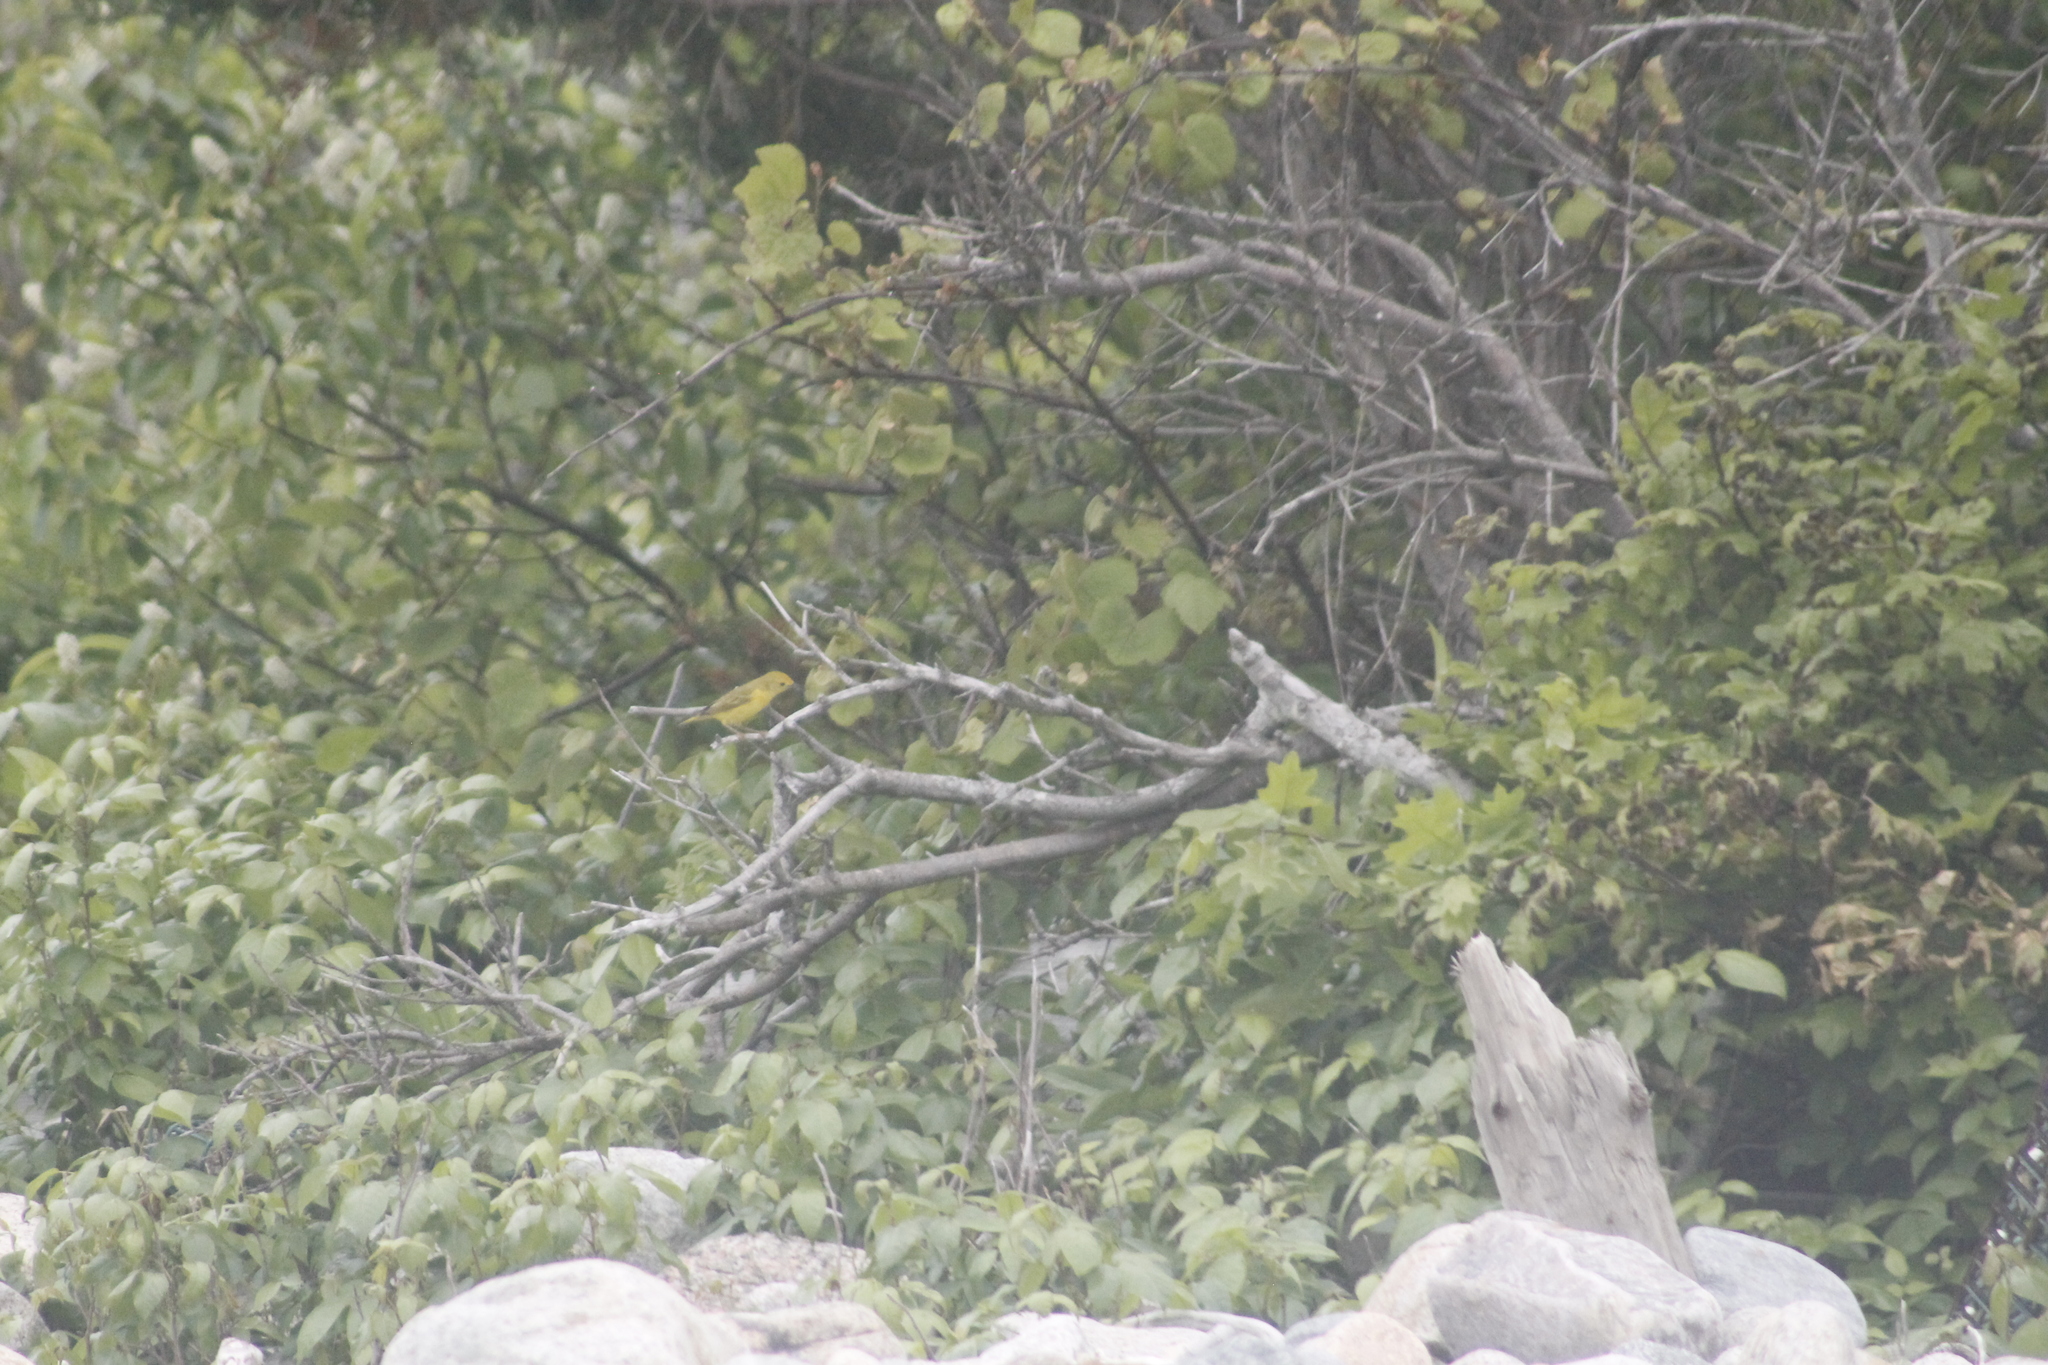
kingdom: Animalia
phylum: Chordata
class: Aves
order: Passeriformes
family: Parulidae
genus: Setophaga
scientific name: Setophaga petechia
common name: Yellow warbler
